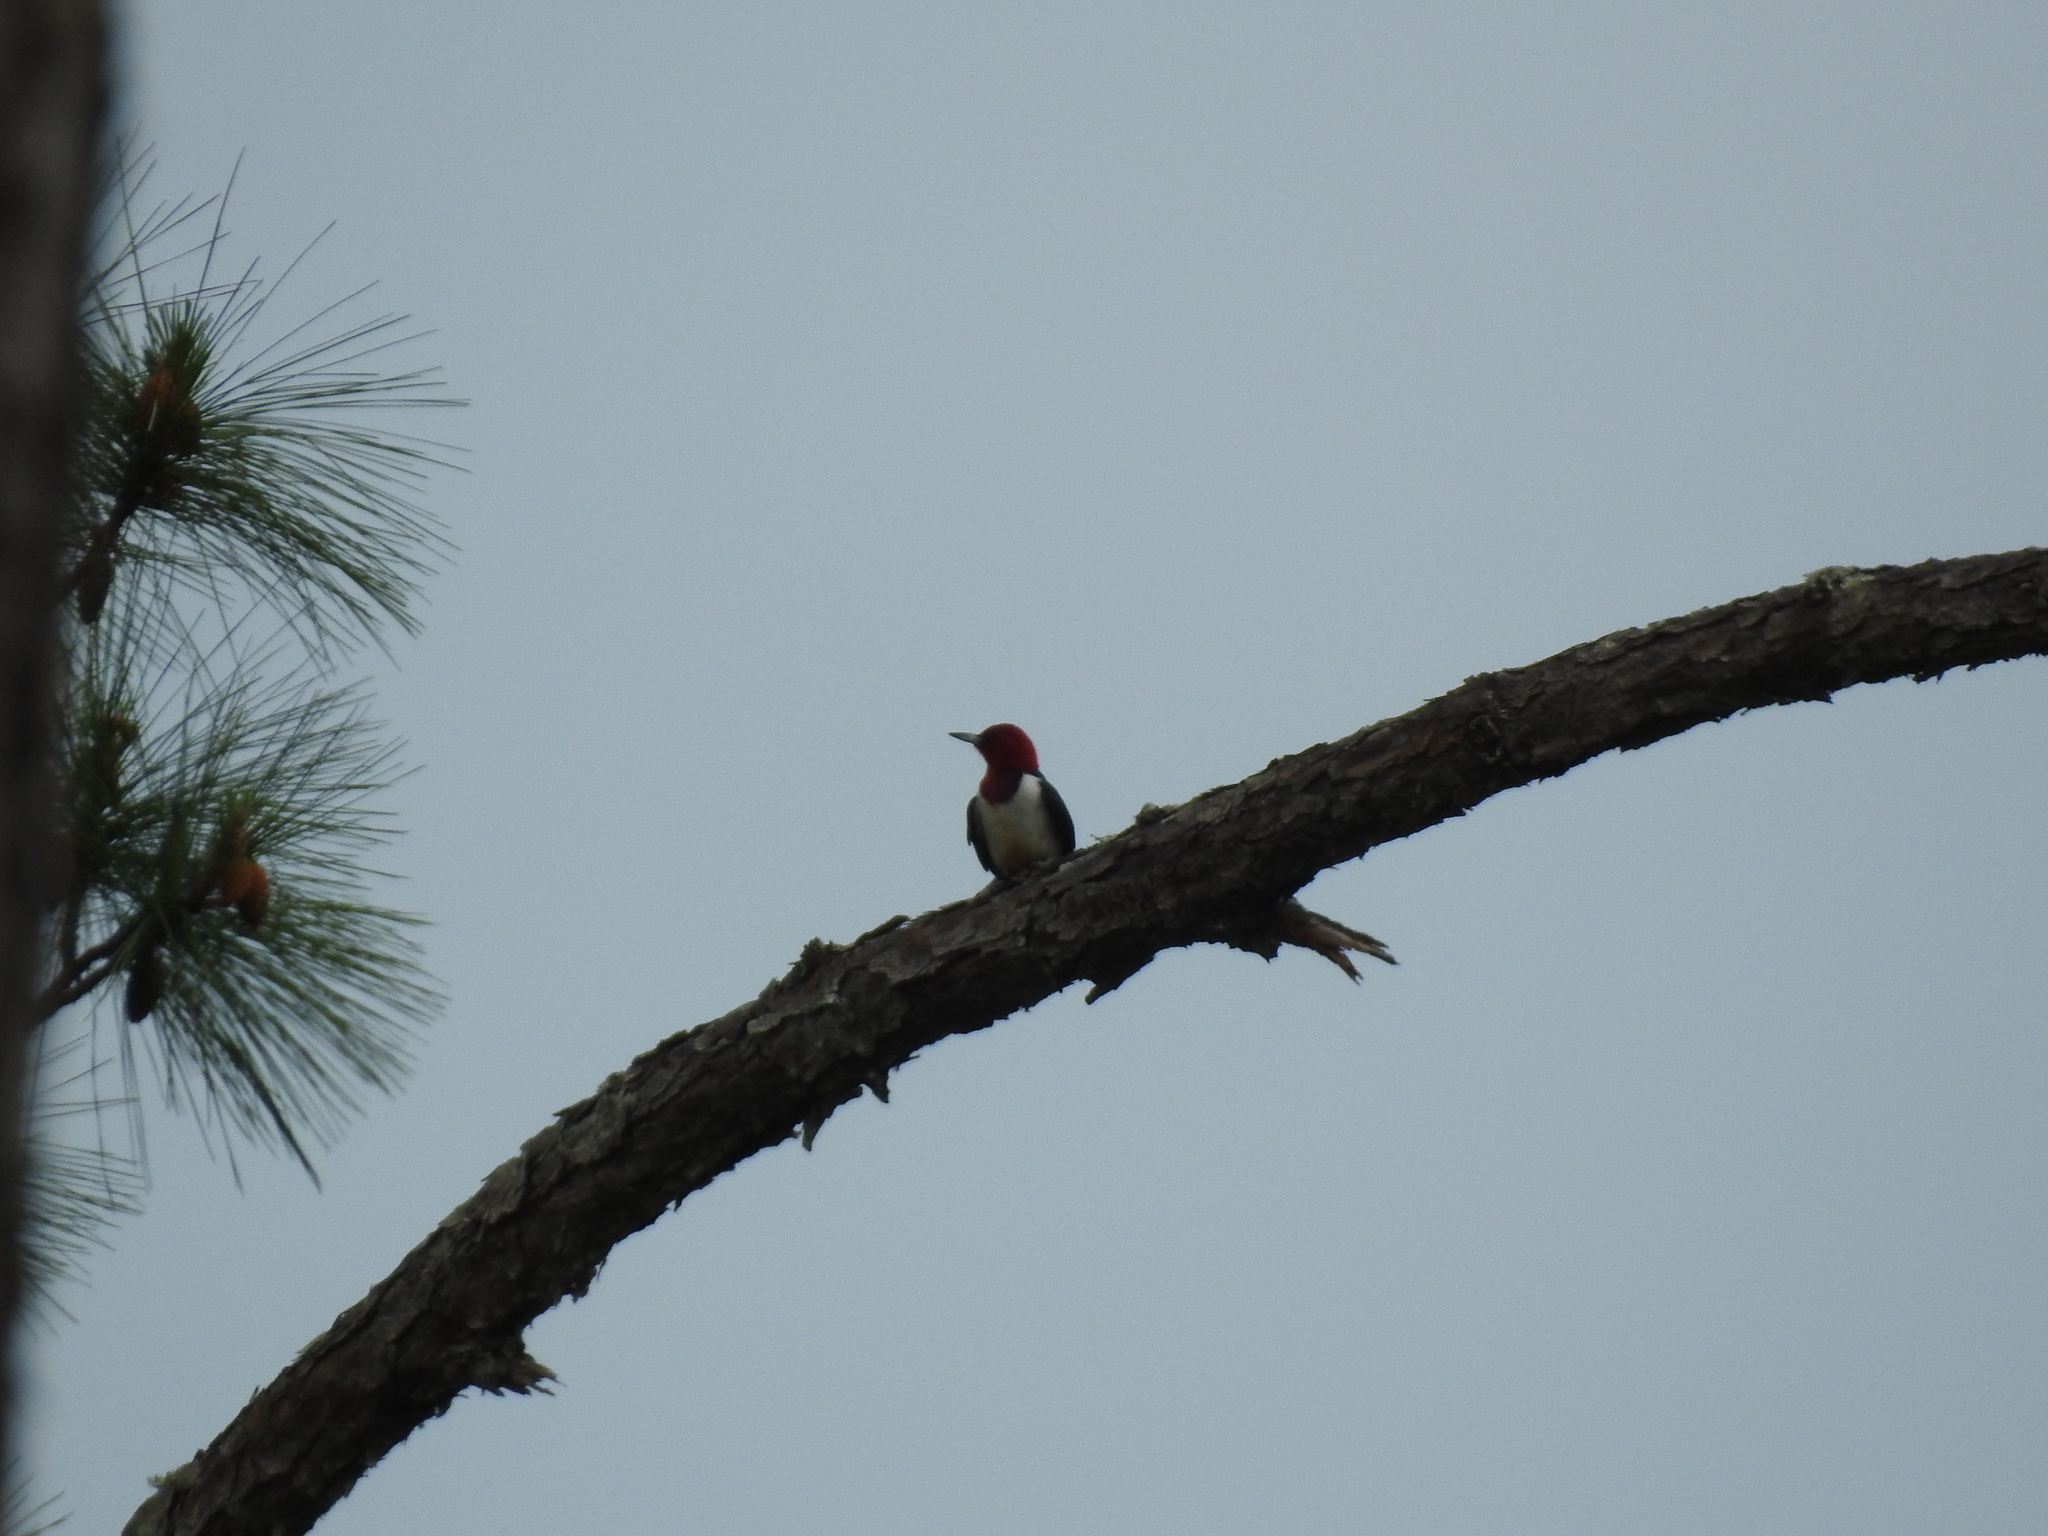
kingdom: Animalia
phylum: Chordata
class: Aves
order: Piciformes
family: Picidae
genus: Melanerpes
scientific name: Melanerpes erythrocephalus
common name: Red-headed woodpecker
